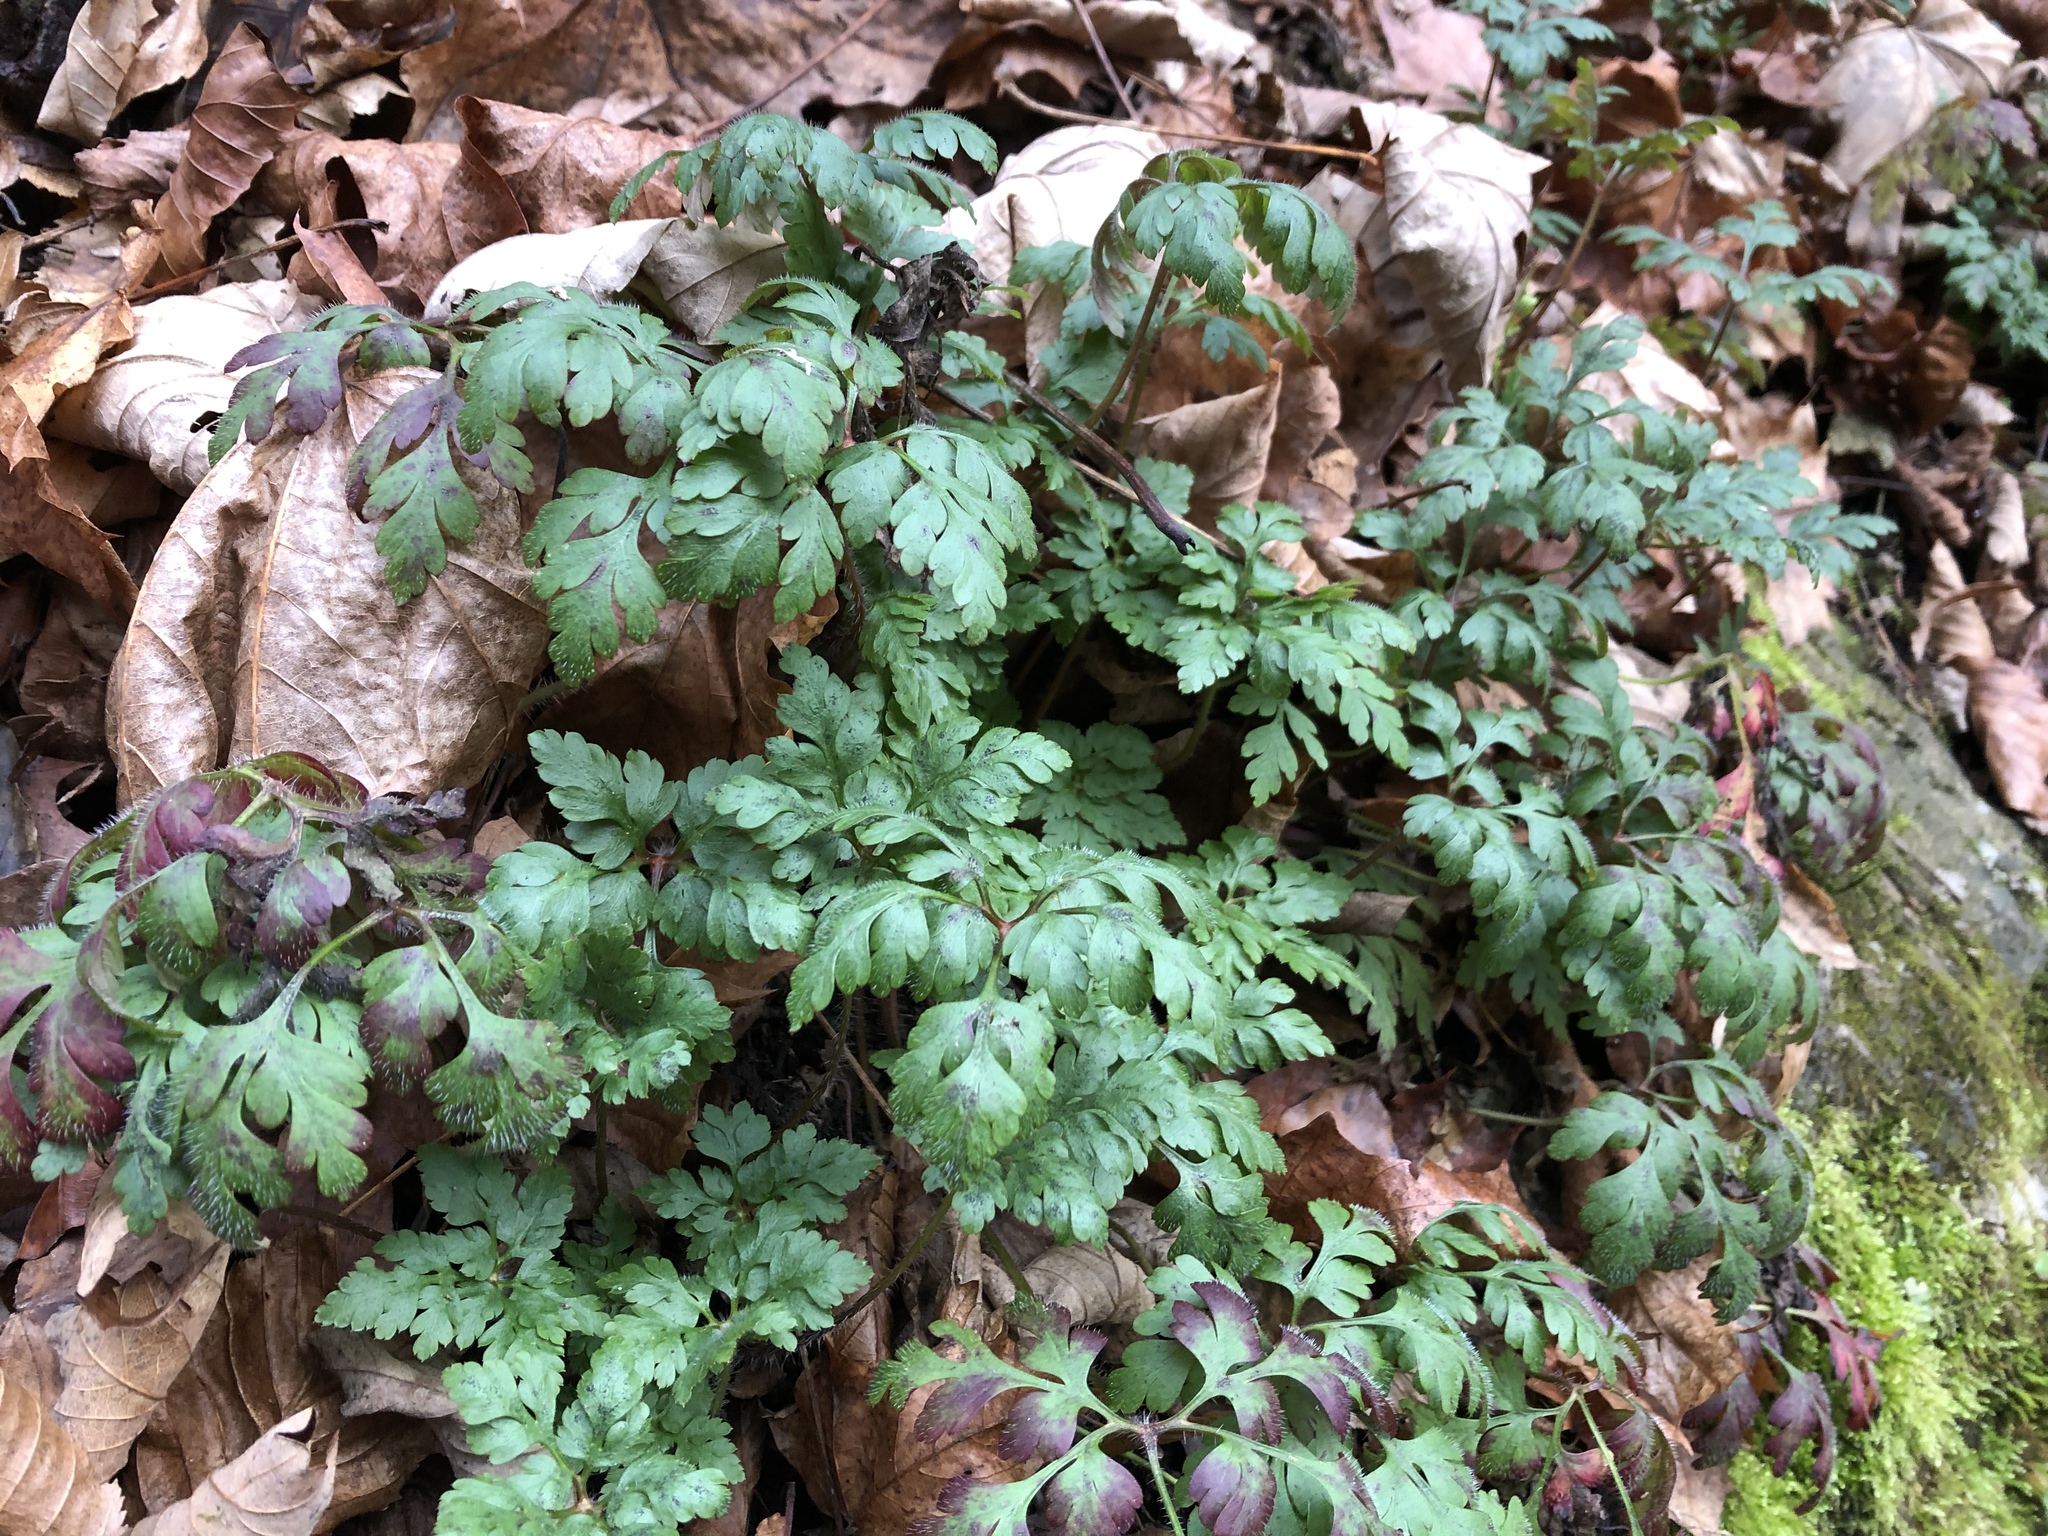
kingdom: Plantae
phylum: Tracheophyta
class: Magnoliopsida
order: Geraniales
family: Geraniaceae
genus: Geranium
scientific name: Geranium robertianum
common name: Herb-robert
